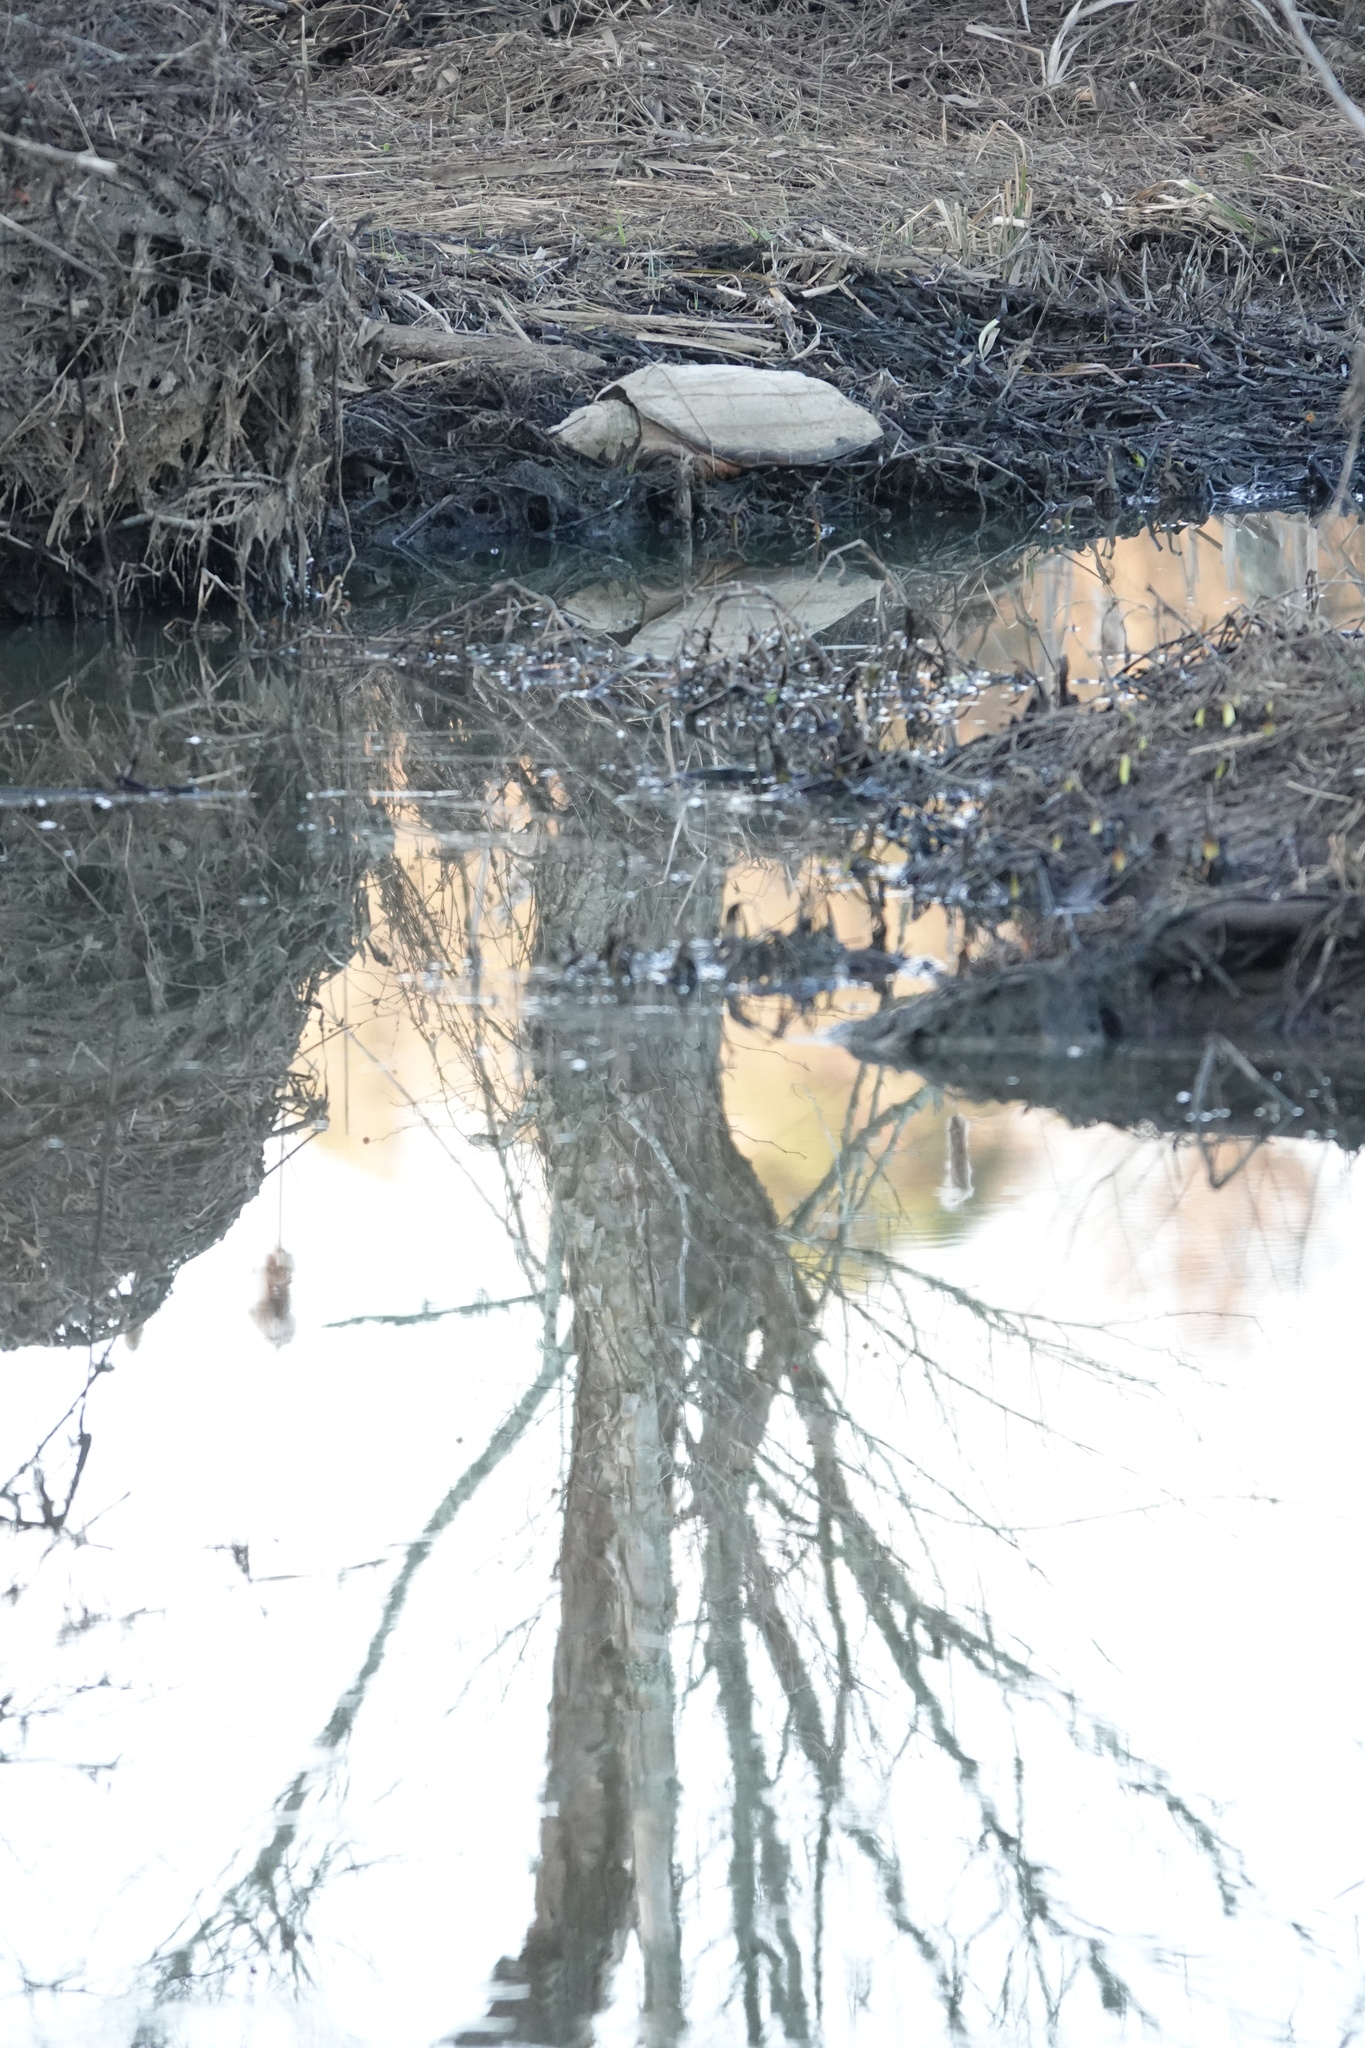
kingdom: Animalia
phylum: Chordata
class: Testudines
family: Chelydridae
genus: Chelydra
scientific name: Chelydra serpentina
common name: Common snapping turtle
